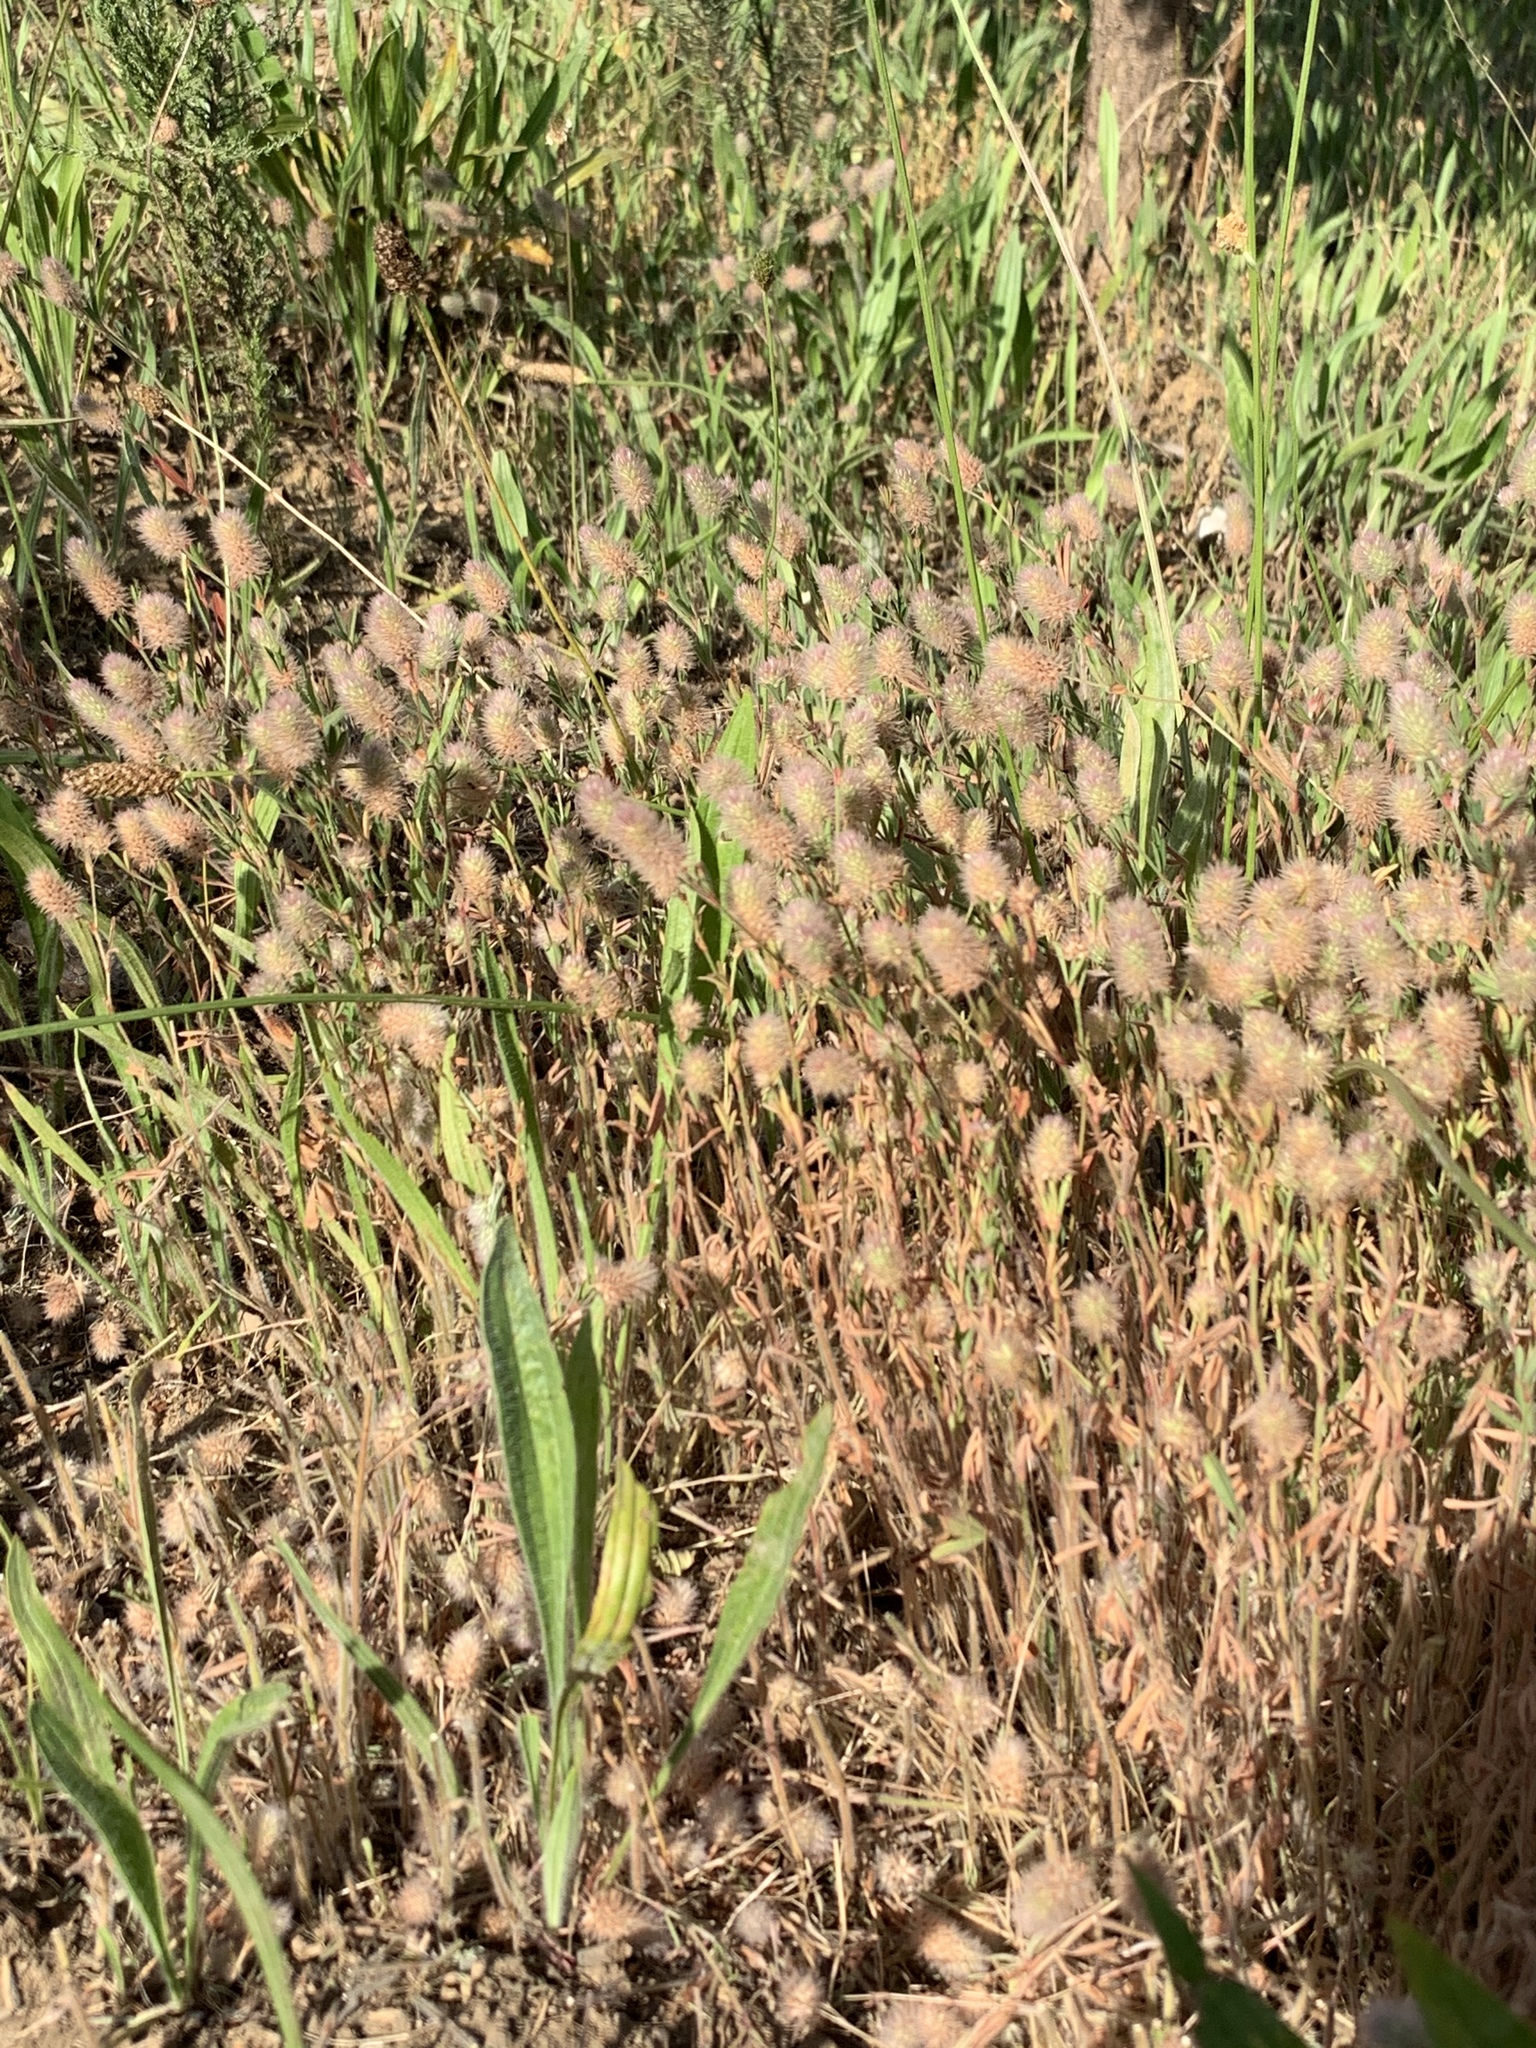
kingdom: Plantae
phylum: Tracheophyta
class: Magnoliopsida
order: Fabales
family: Fabaceae
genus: Trifolium
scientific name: Trifolium angustifolium
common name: Narrow clover
